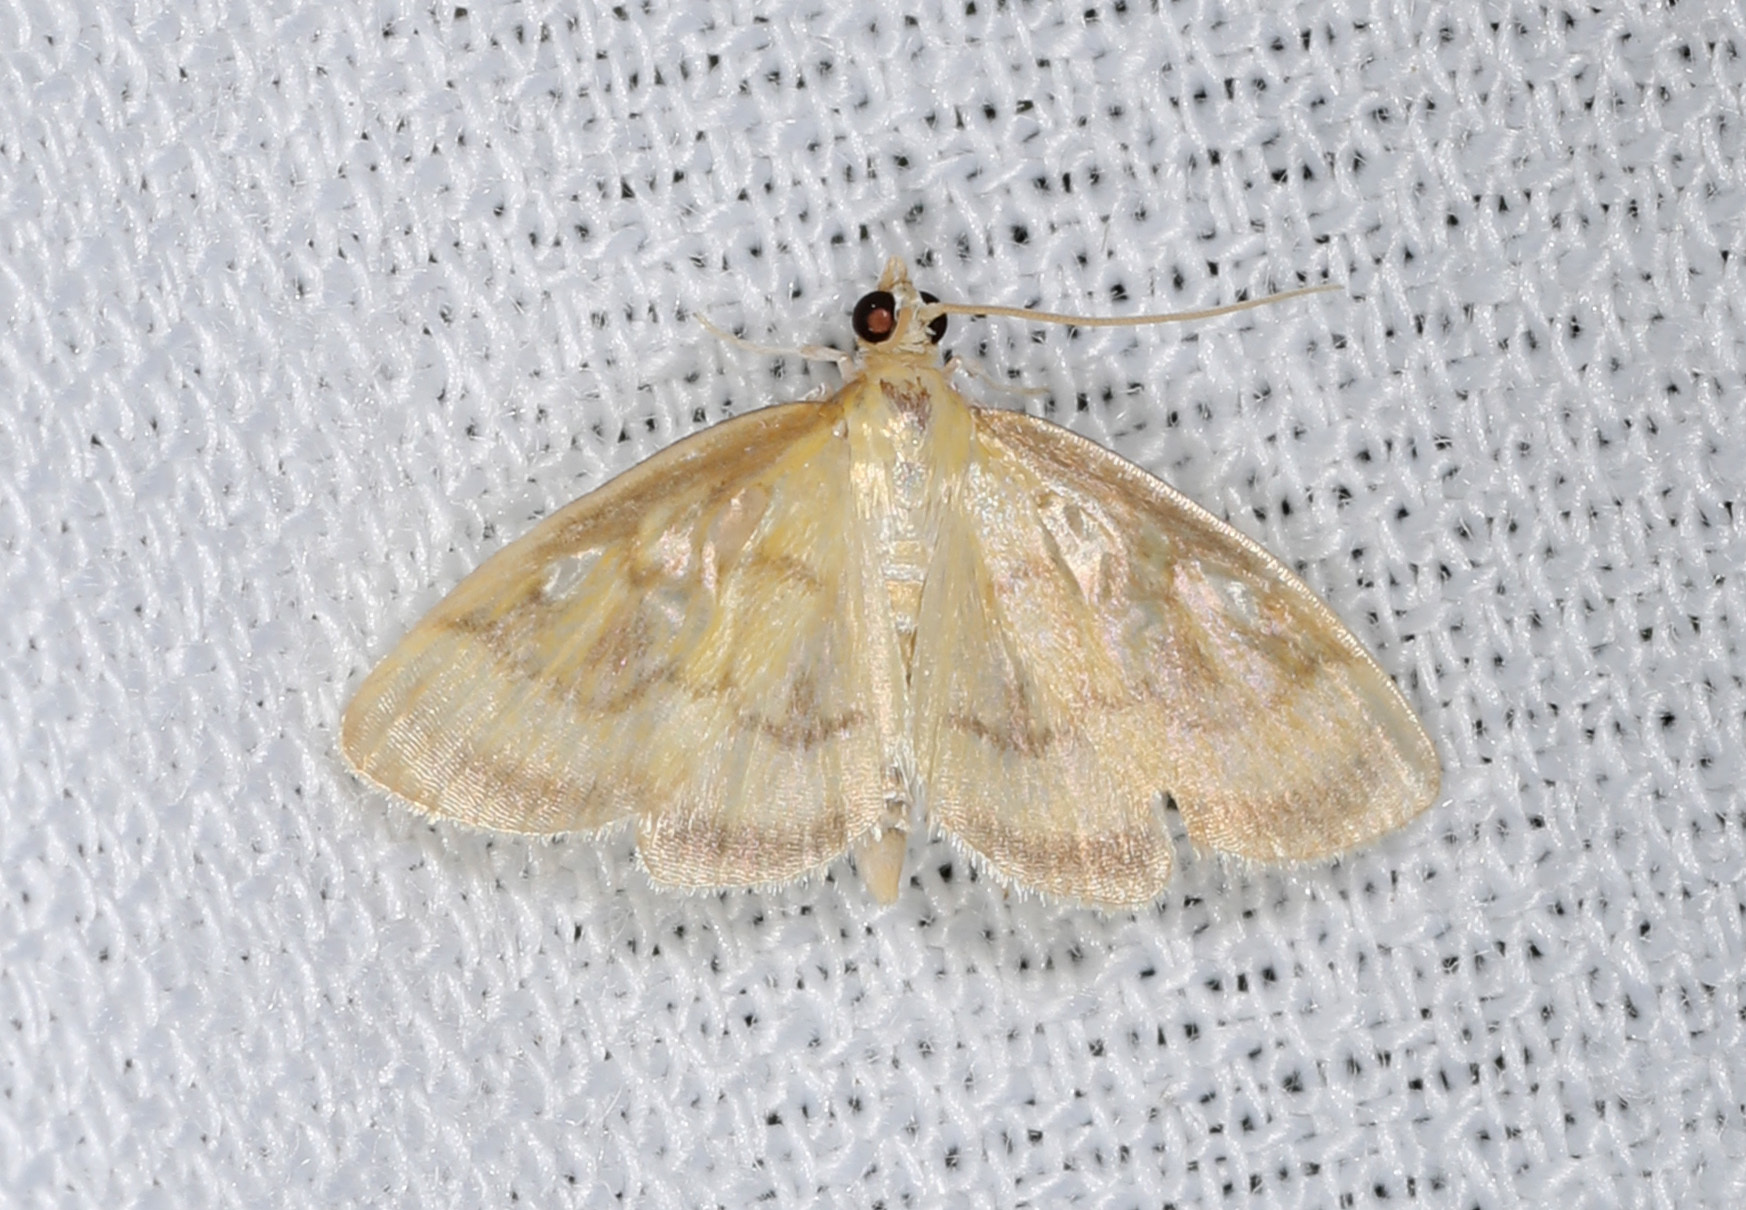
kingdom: Animalia
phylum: Arthropoda
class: Insecta
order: Lepidoptera
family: Crambidae
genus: Crocidophora
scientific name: Crocidophora tuberculalis
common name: Pale-winged crocidiphora moth
